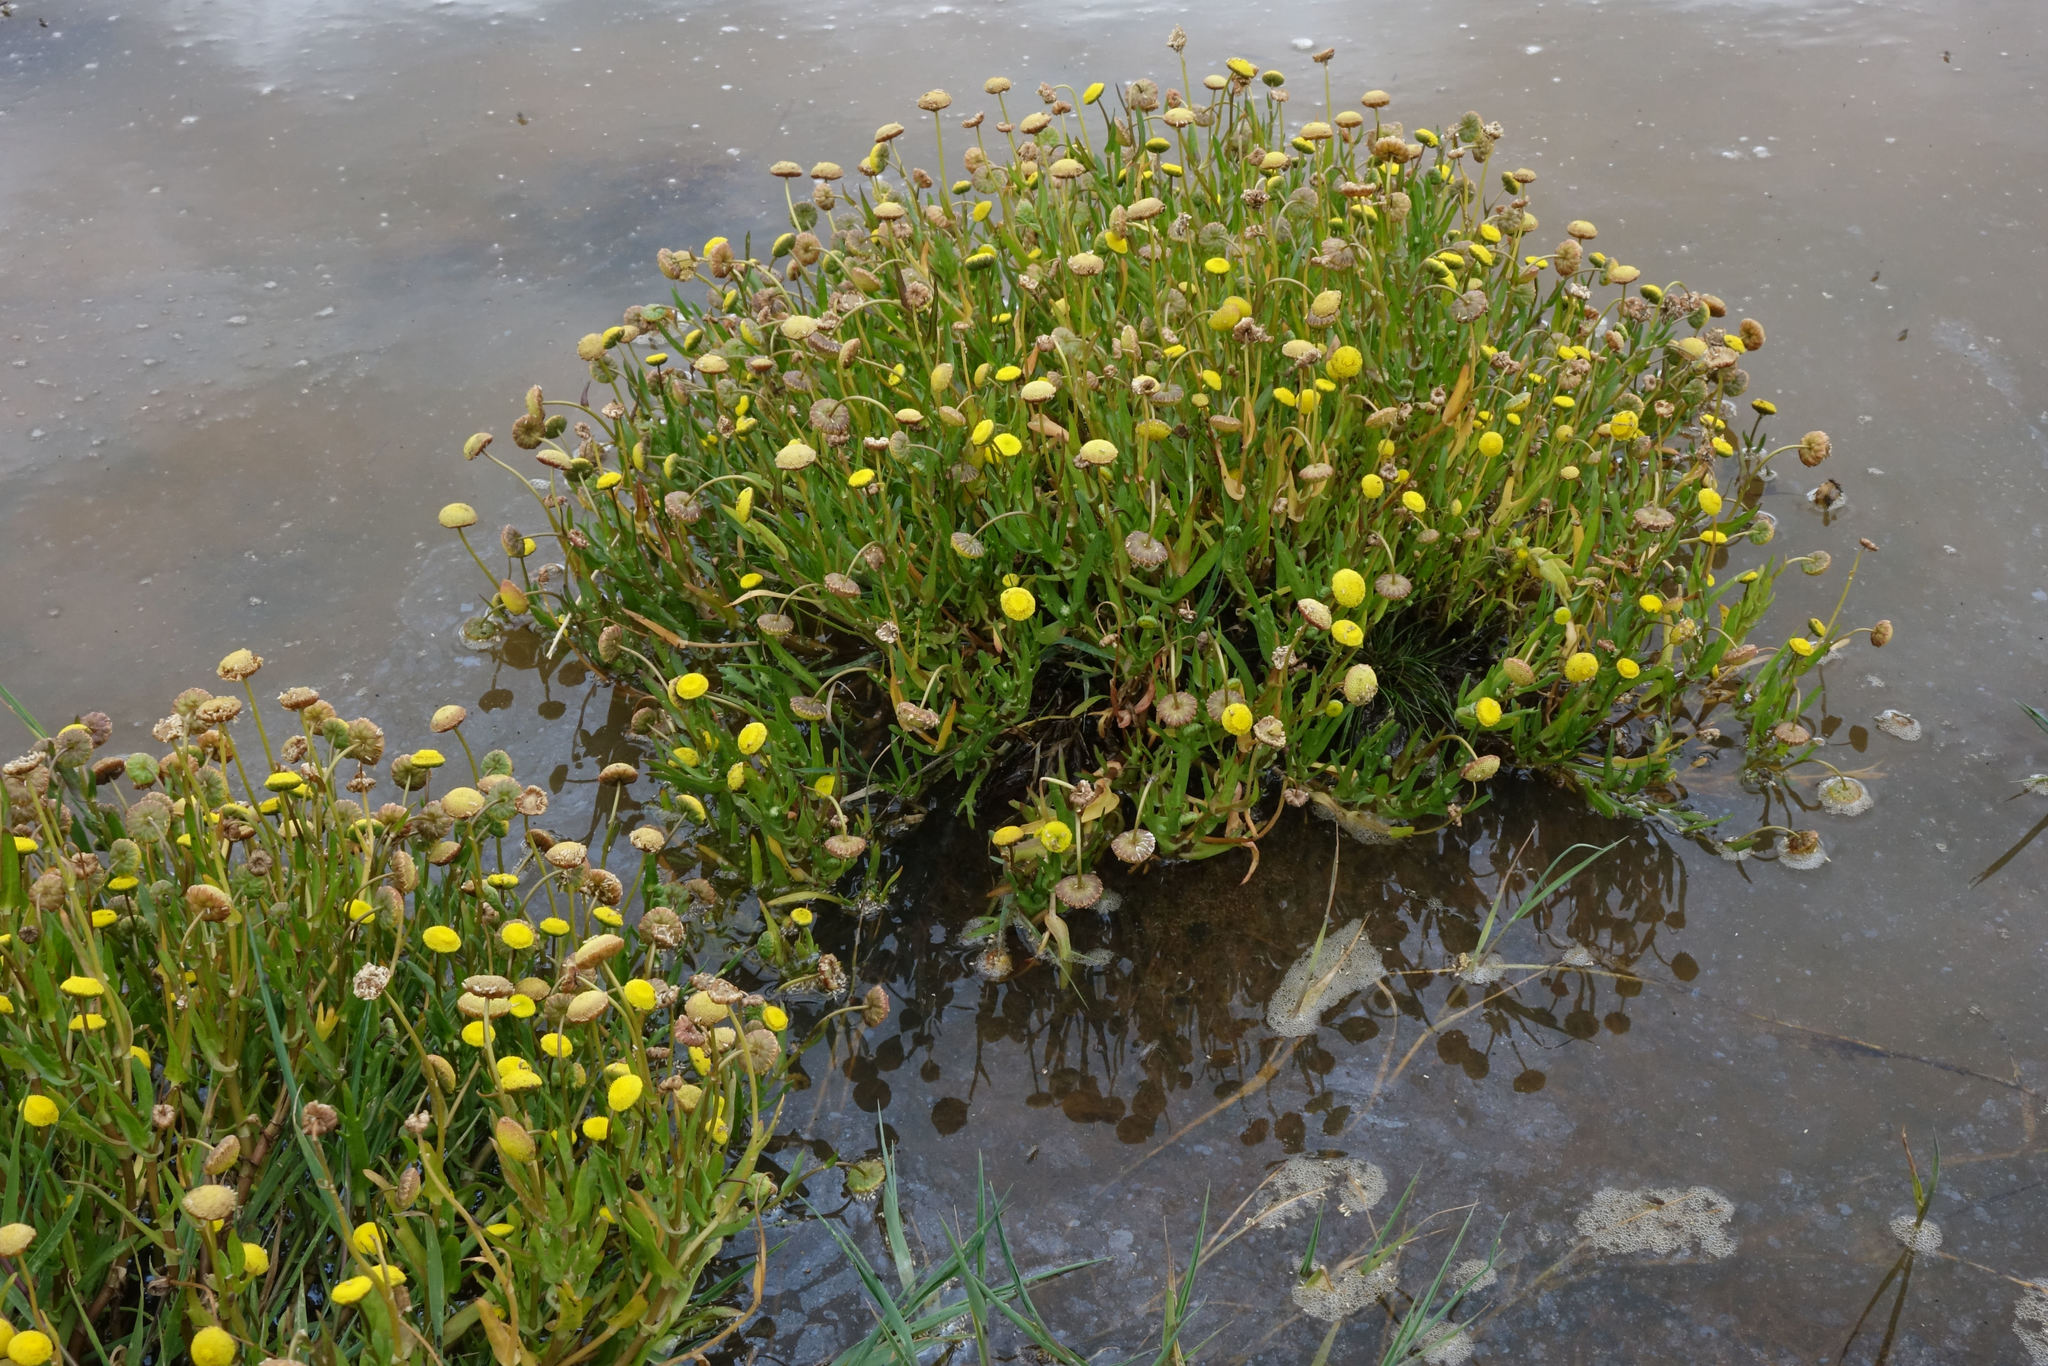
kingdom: Plantae
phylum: Tracheophyta
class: Magnoliopsida
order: Asterales
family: Asteraceae
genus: Cotula
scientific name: Cotula coronopifolia
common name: Buttonweed
